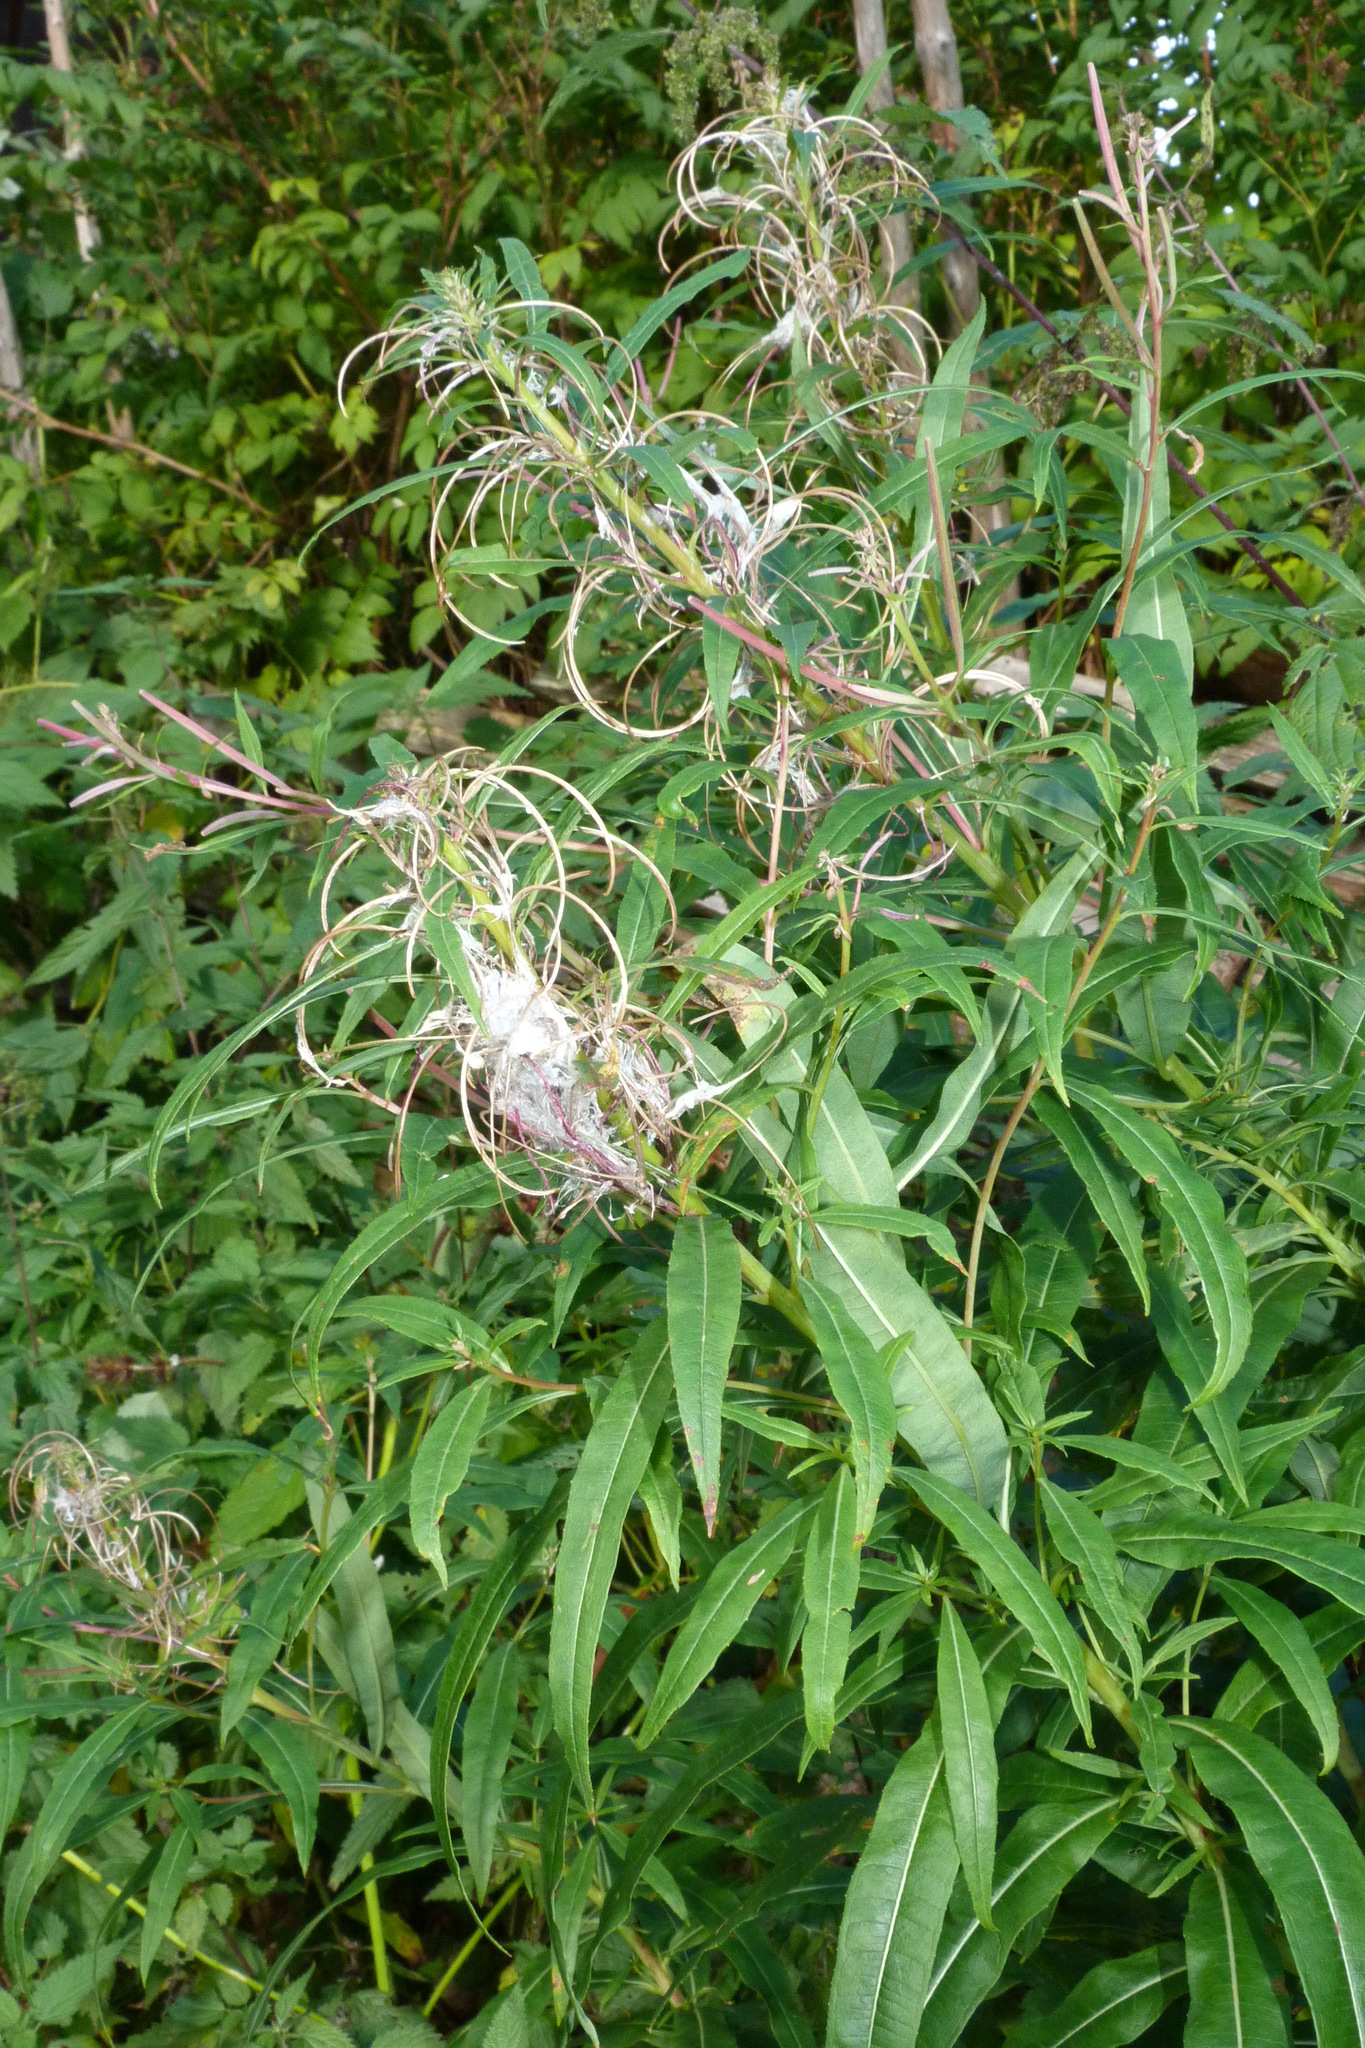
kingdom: Plantae
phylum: Tracheophyta
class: Magnoliopsida
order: Myrtales
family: Onagraceae
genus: Chamaenerion
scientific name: Chamaenerion angustifolium
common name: Fireweed
